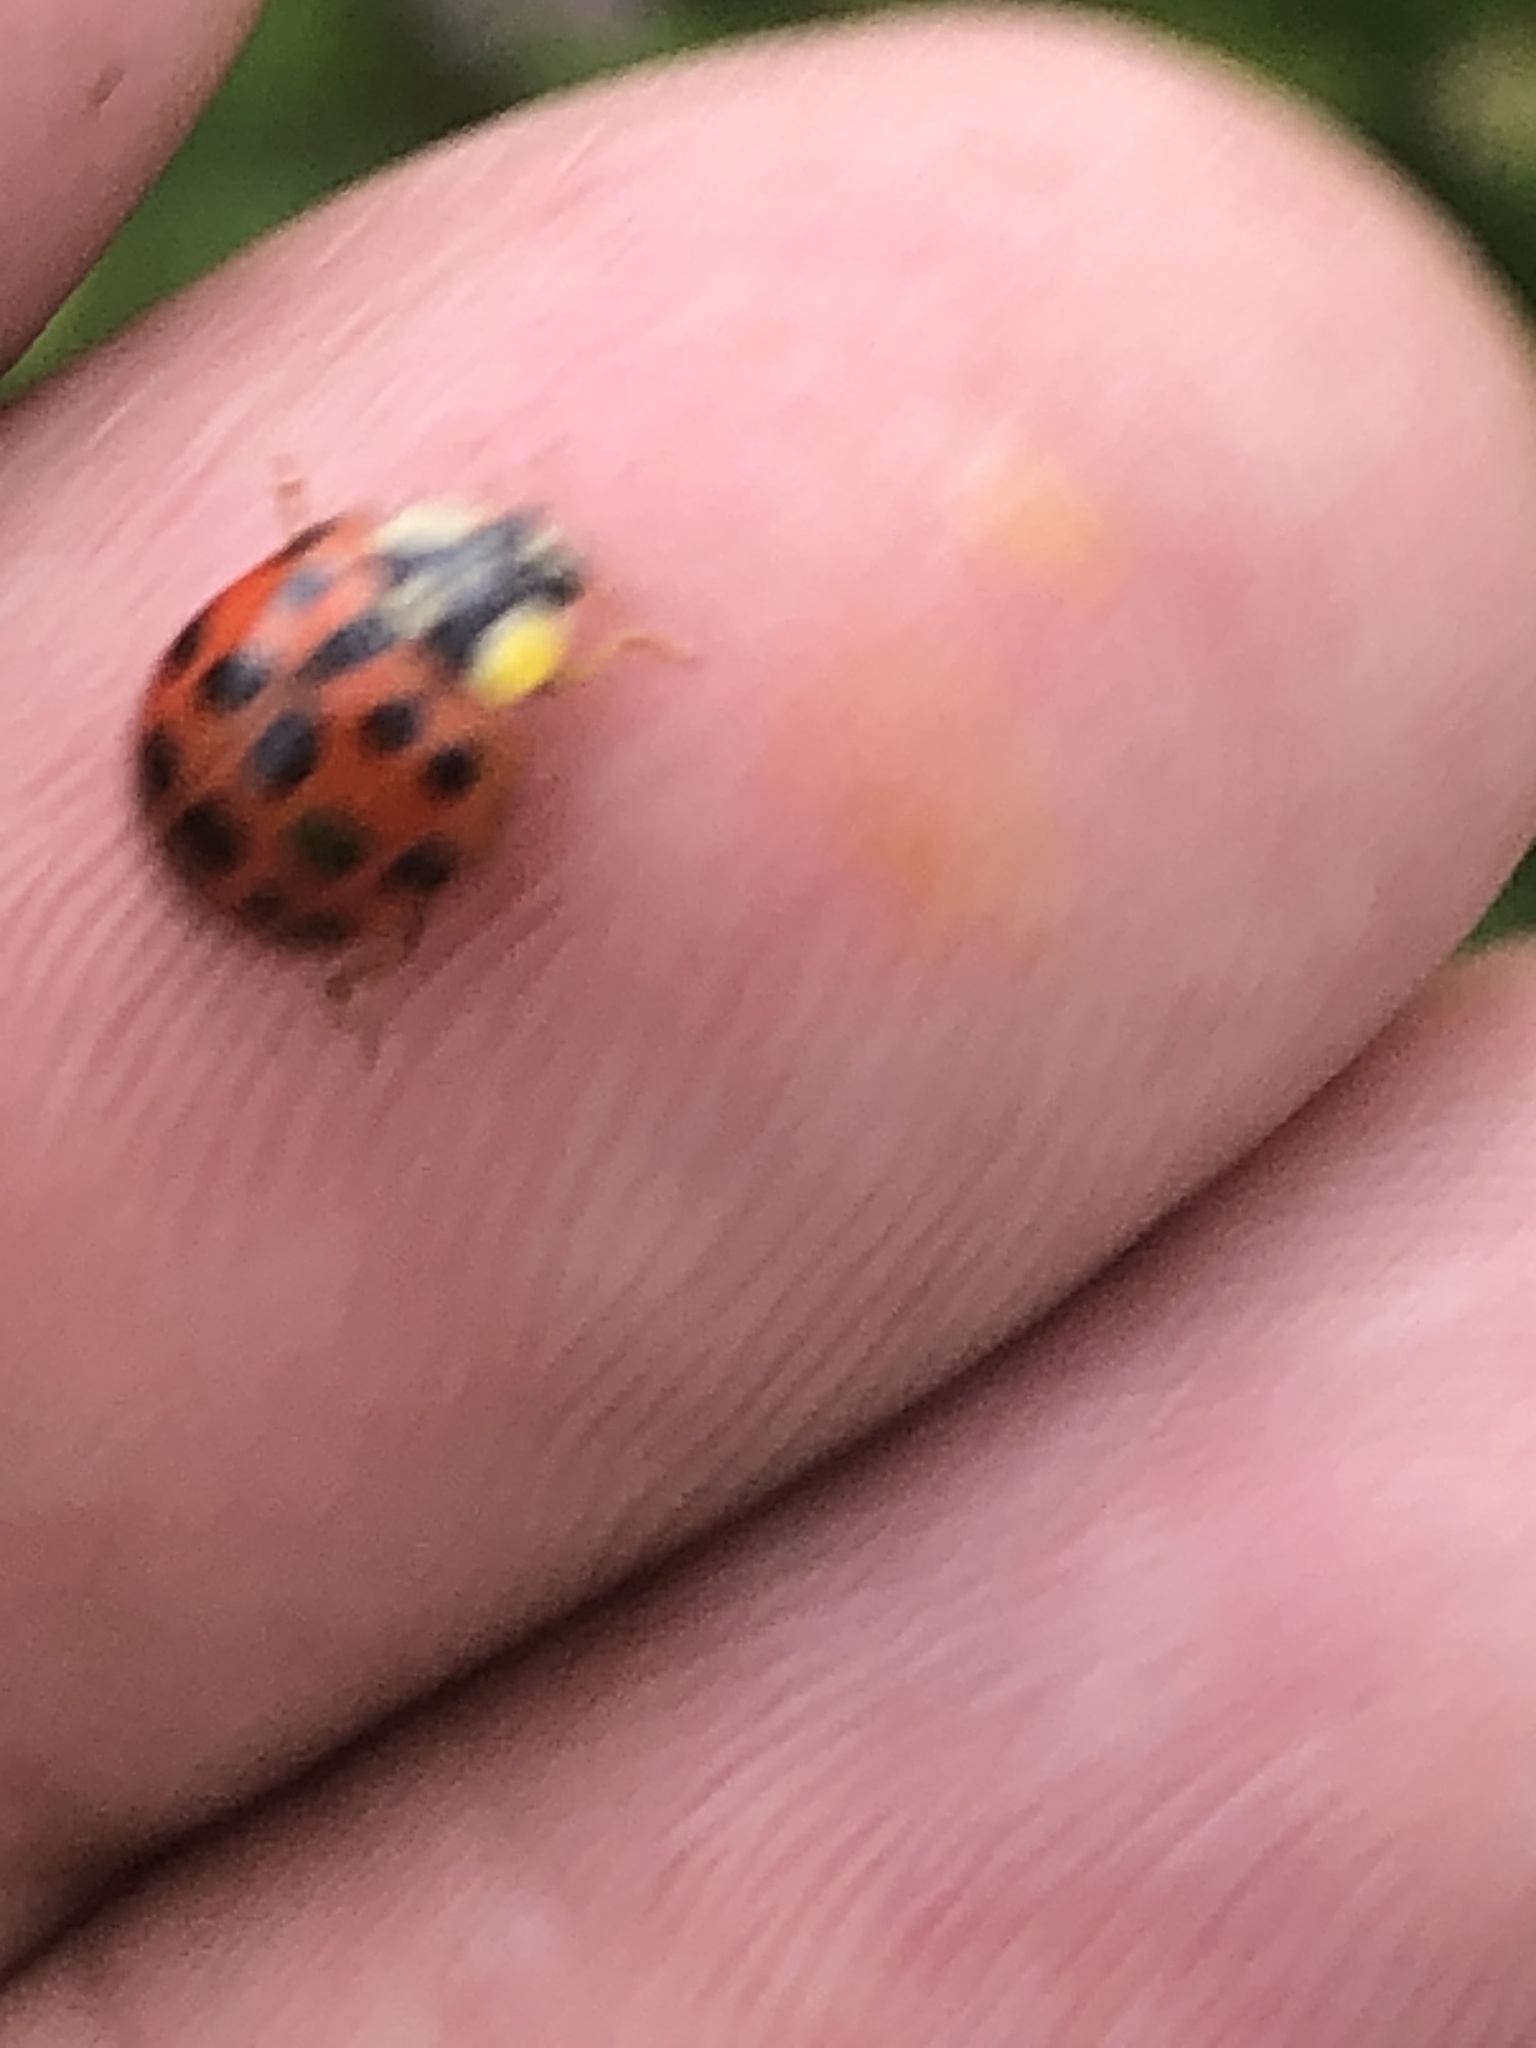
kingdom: Animalia
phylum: Arthropoda
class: Insecta
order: Coleoptera
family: Coccinellidae
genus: Harmonia
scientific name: Harmonia axyridis
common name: Harlequin ladybird
